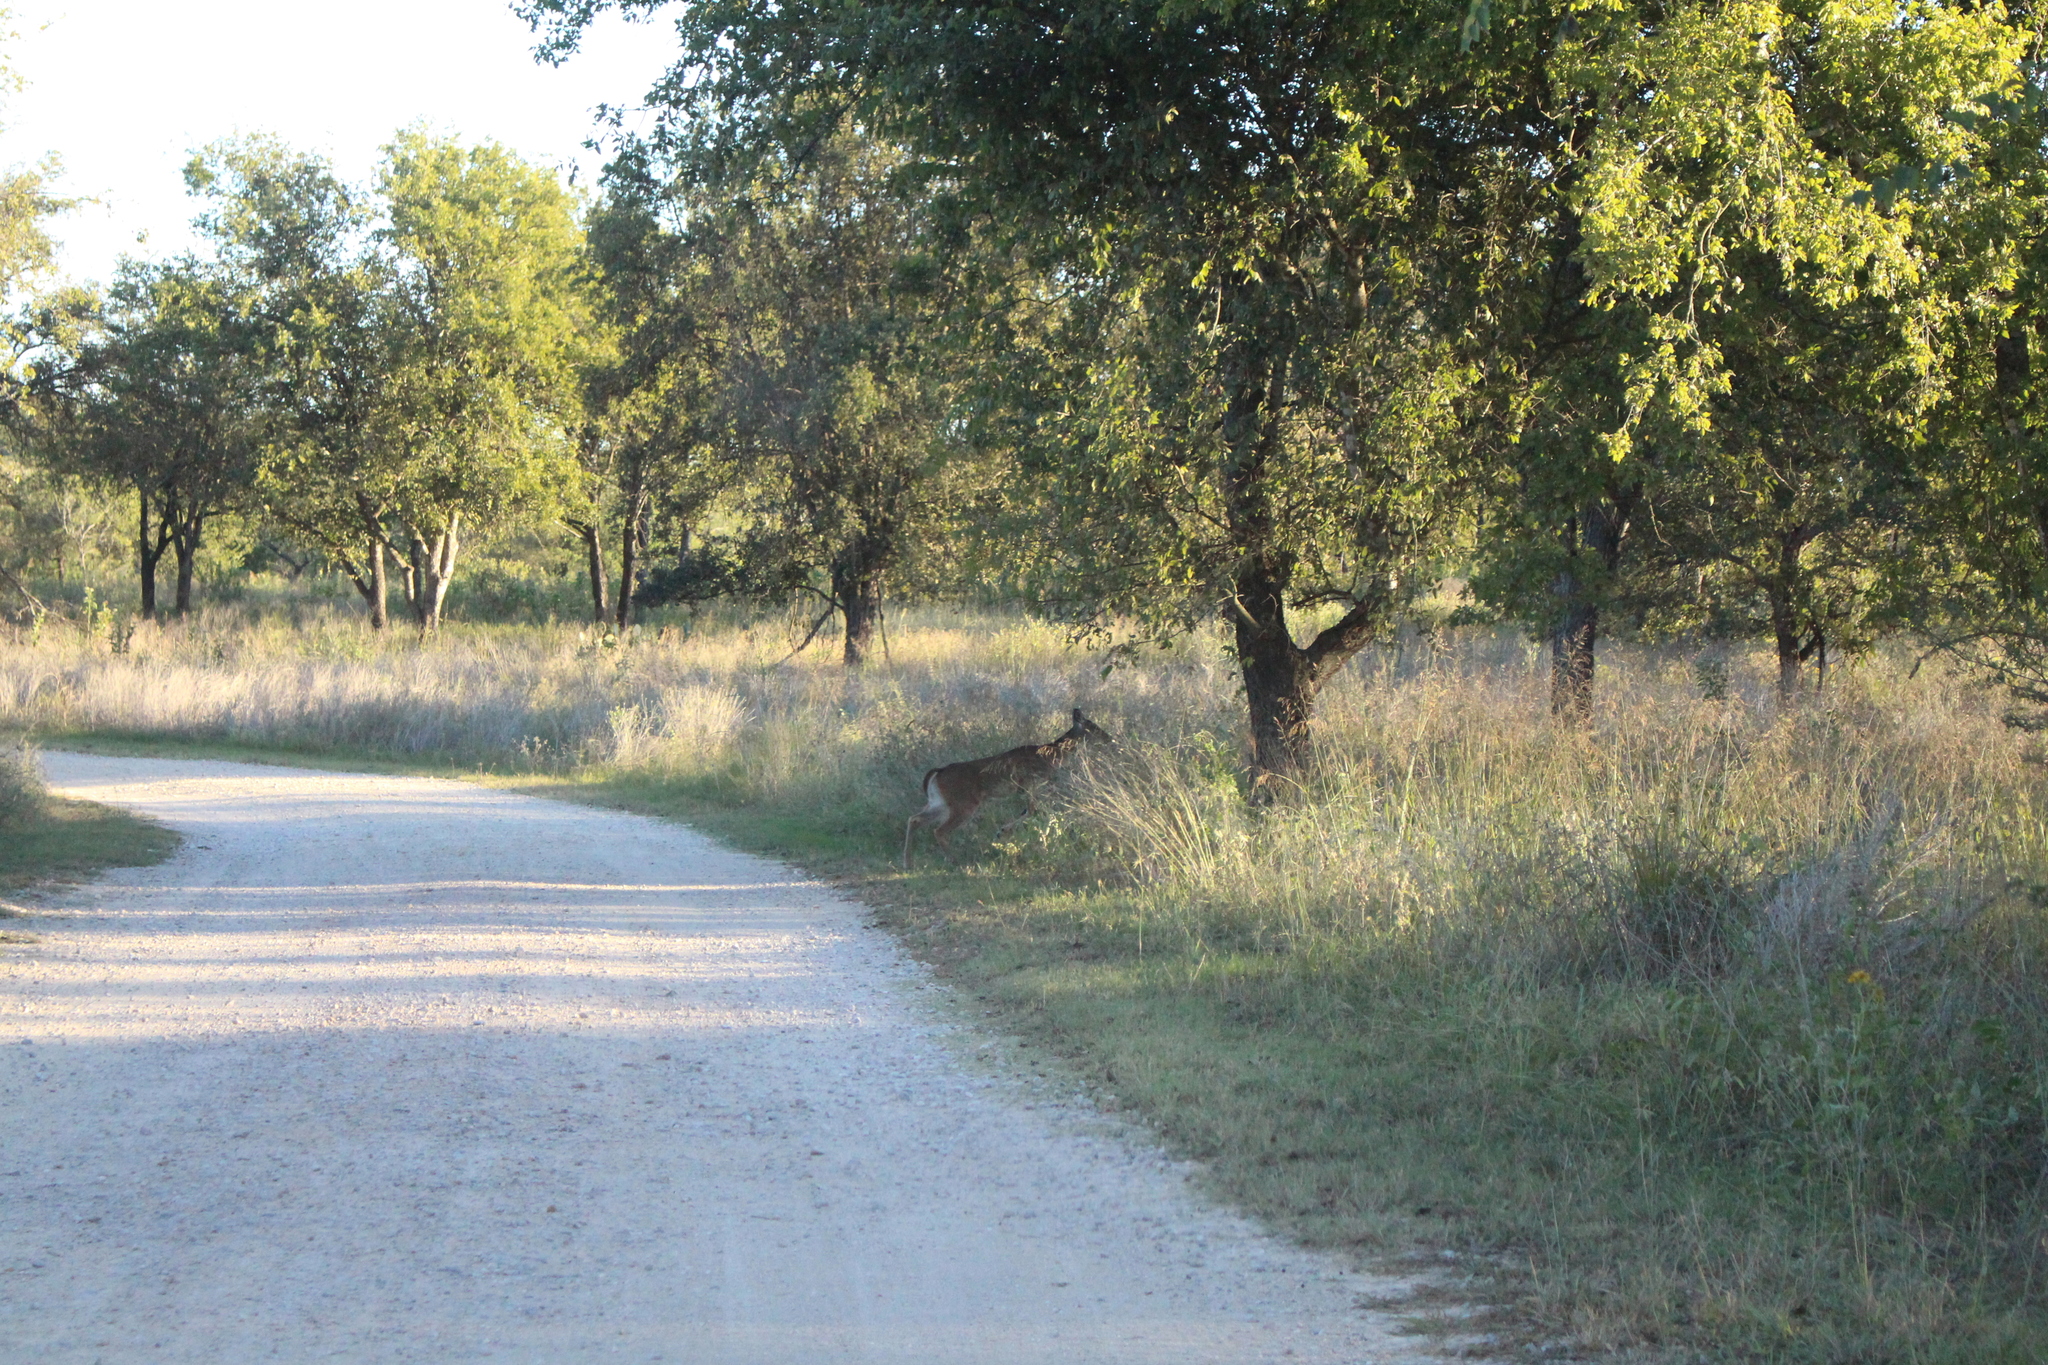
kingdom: Animalia
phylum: Chordata
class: Mammalia
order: Artiodactyla
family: Cervidae
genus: Odocoileus
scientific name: Odocoileus virginianus
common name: White-tailed deer
